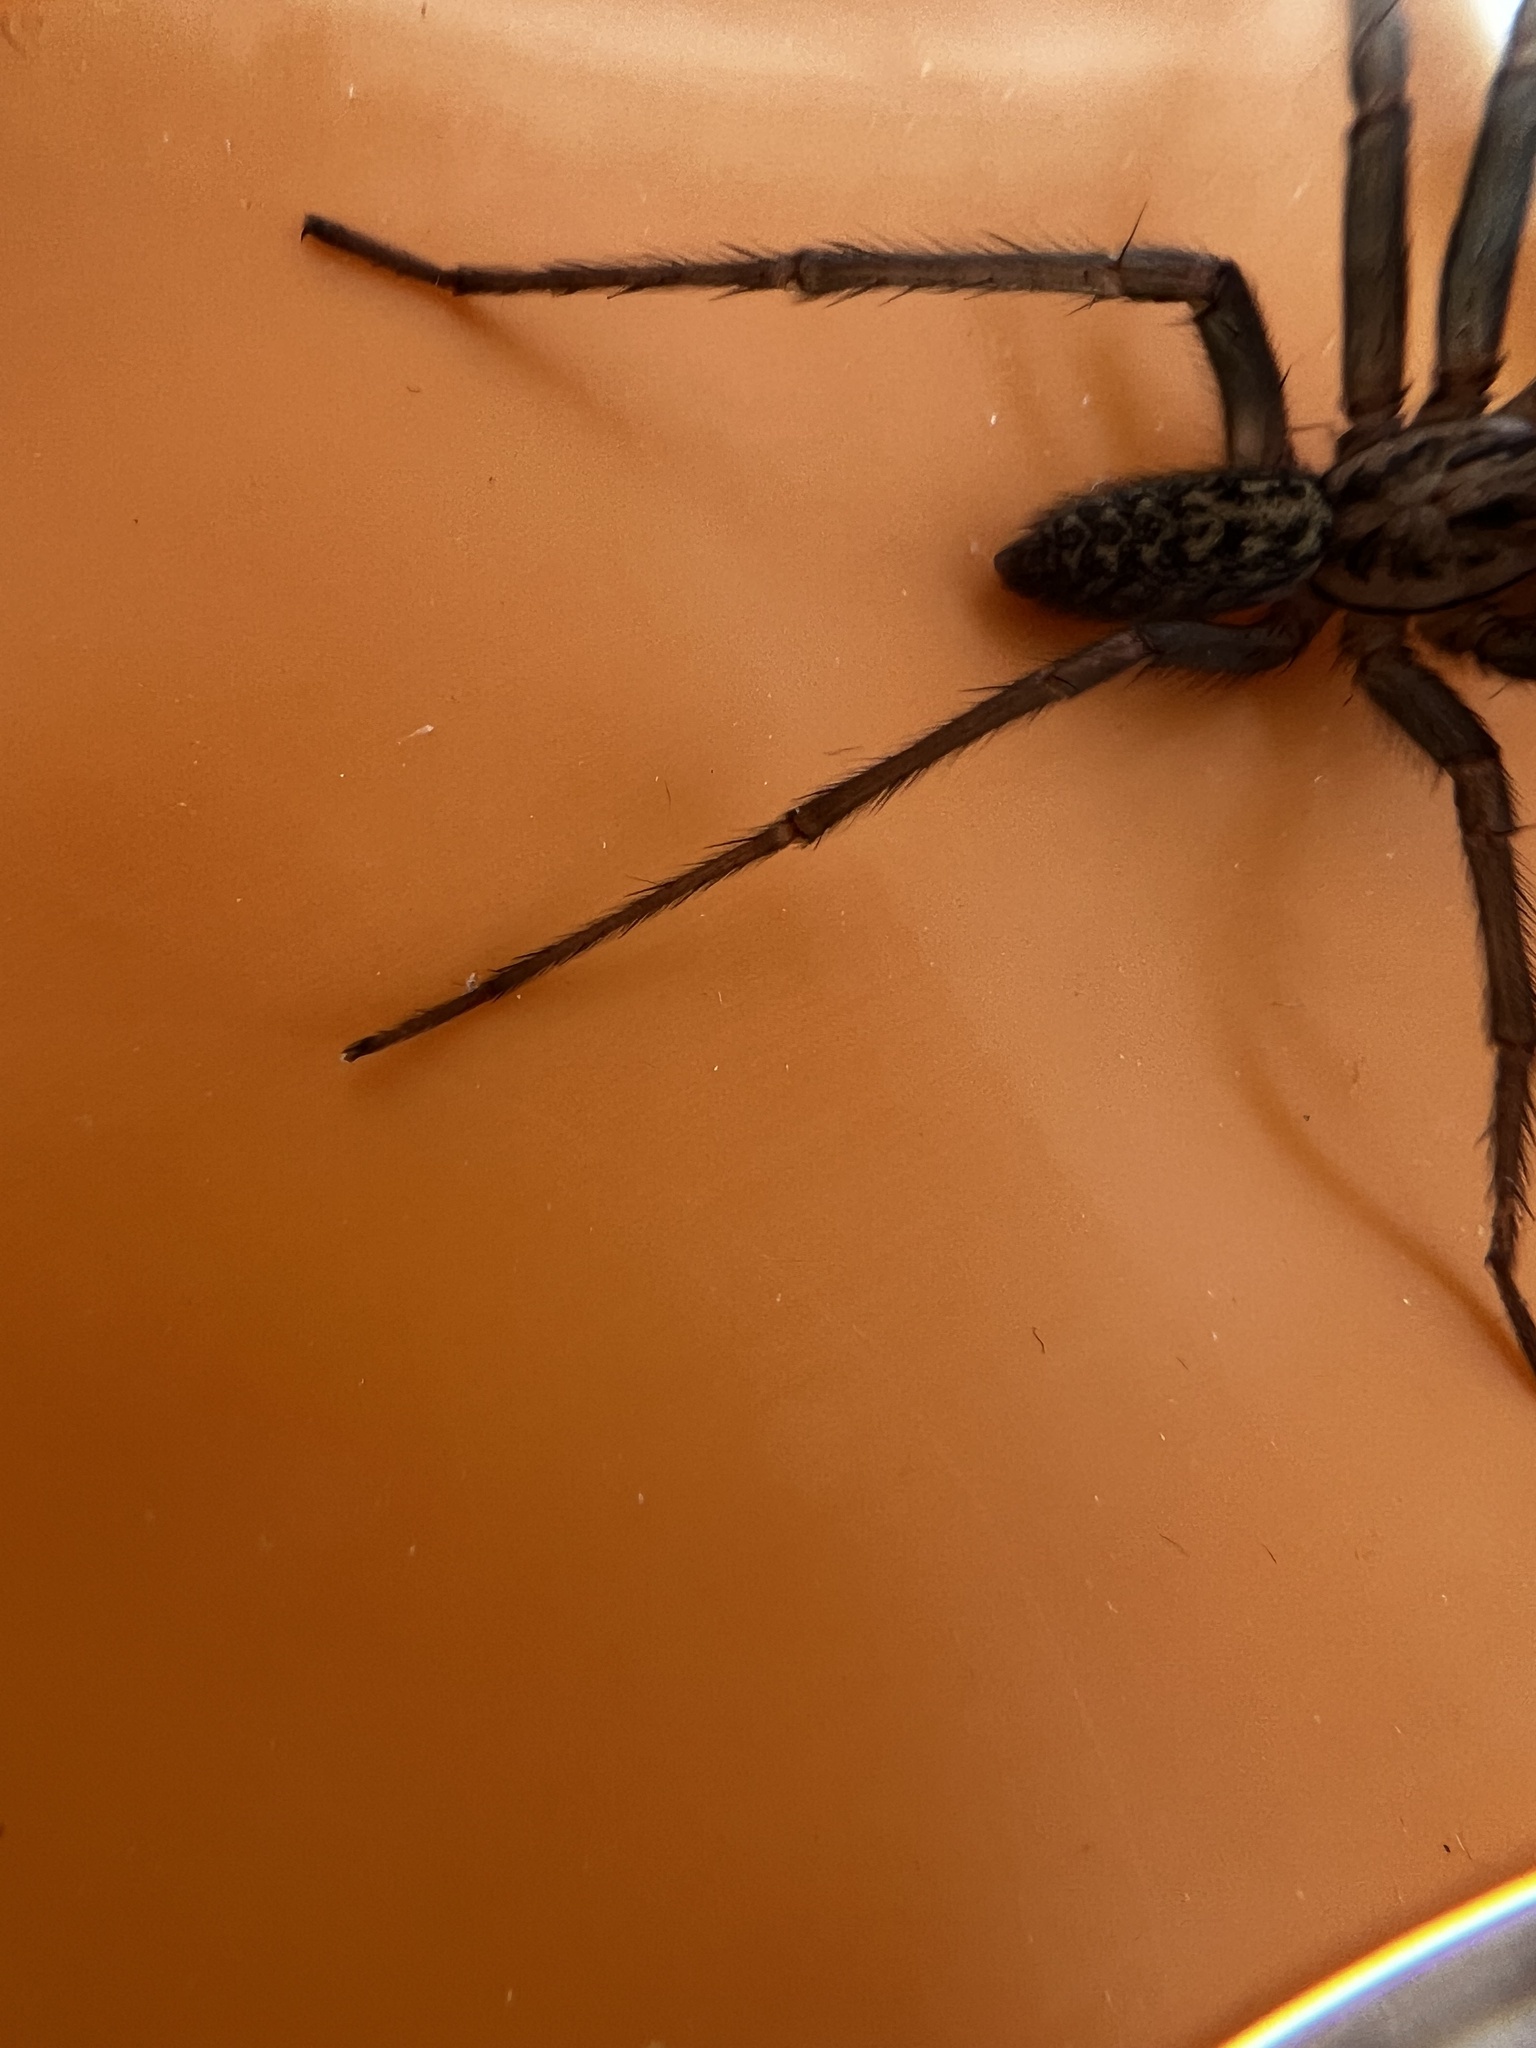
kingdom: Animalia
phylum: Arthropoda
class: Arachnida
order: Araneae
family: Agelenidae
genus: Eratigena
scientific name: Eratigena duellica
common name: Giant house spider
